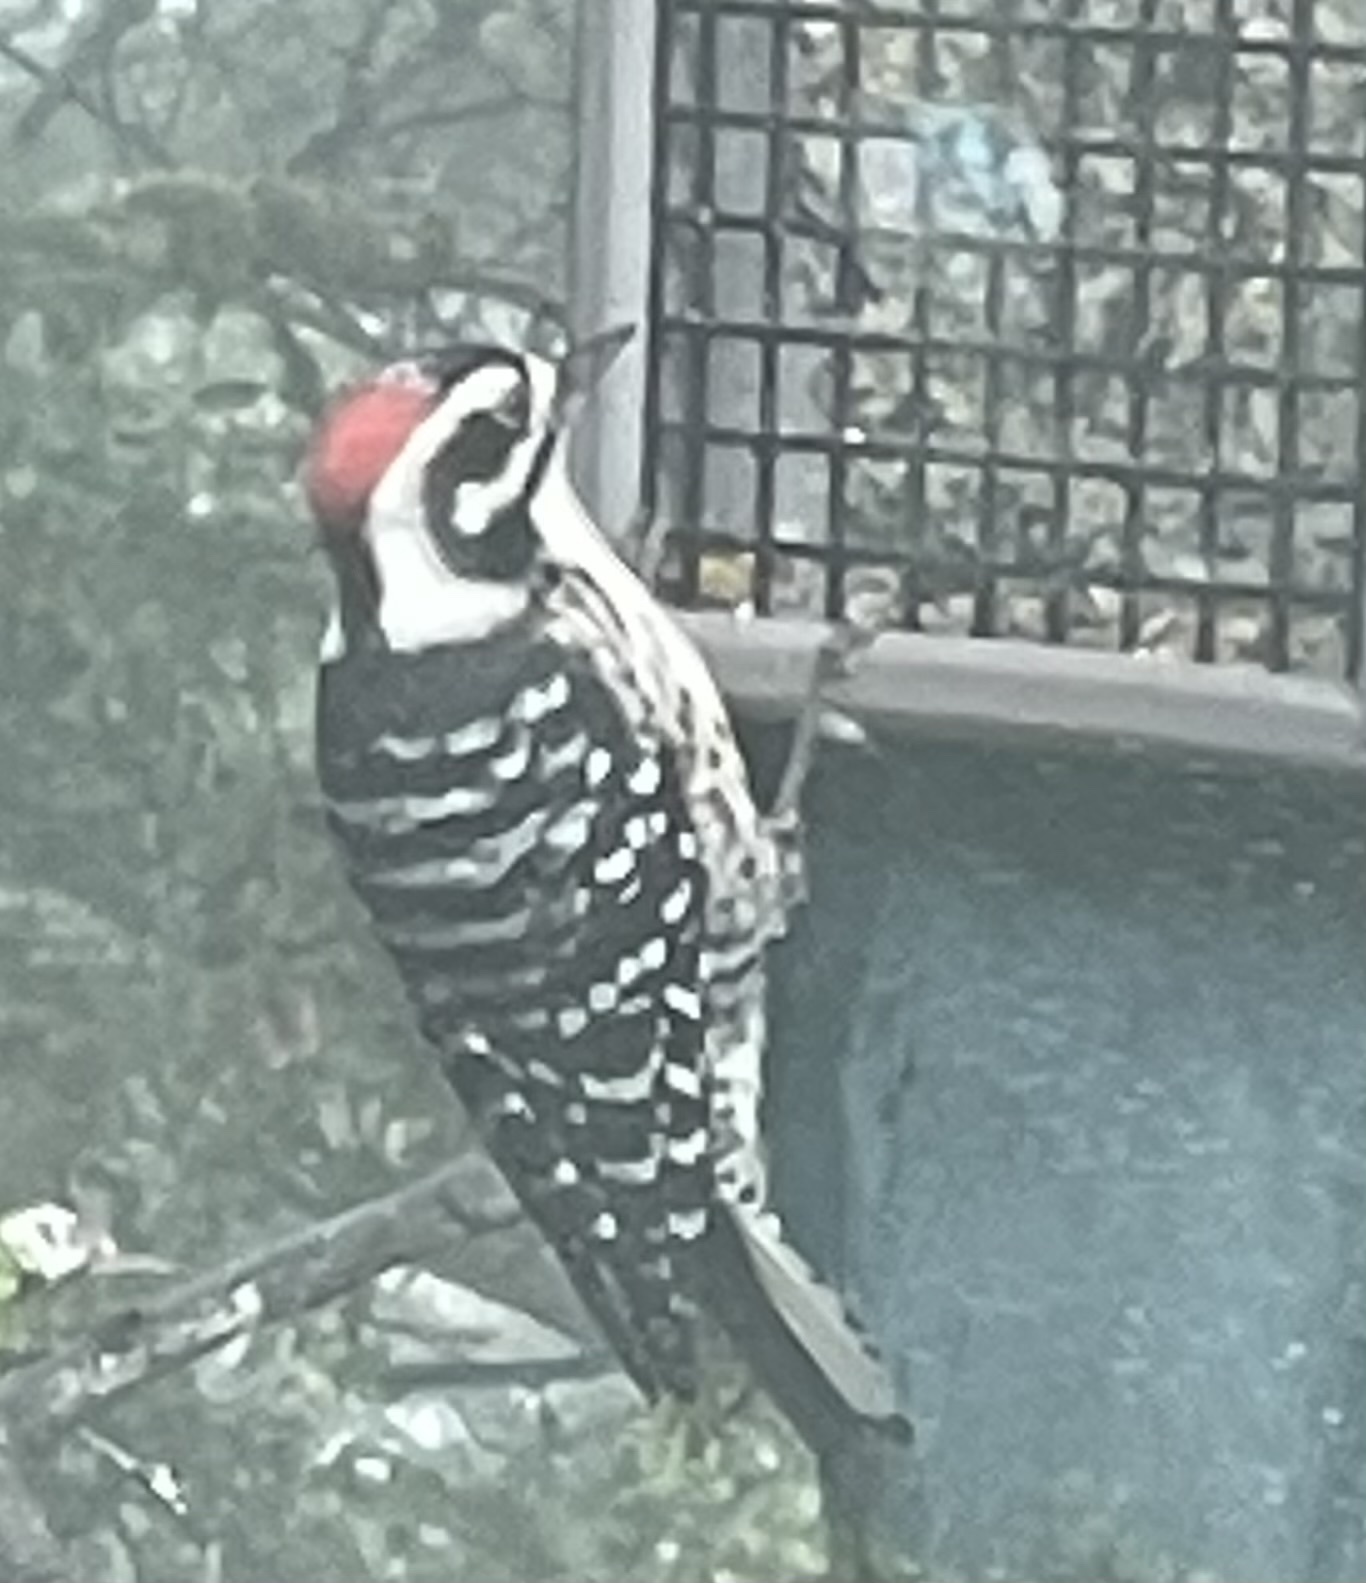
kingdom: Animalia
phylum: Chordata
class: Aves
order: Piciformes
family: Picidae
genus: Dryobates
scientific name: Dryobates nuttallii
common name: Nuttall's woodpecker
